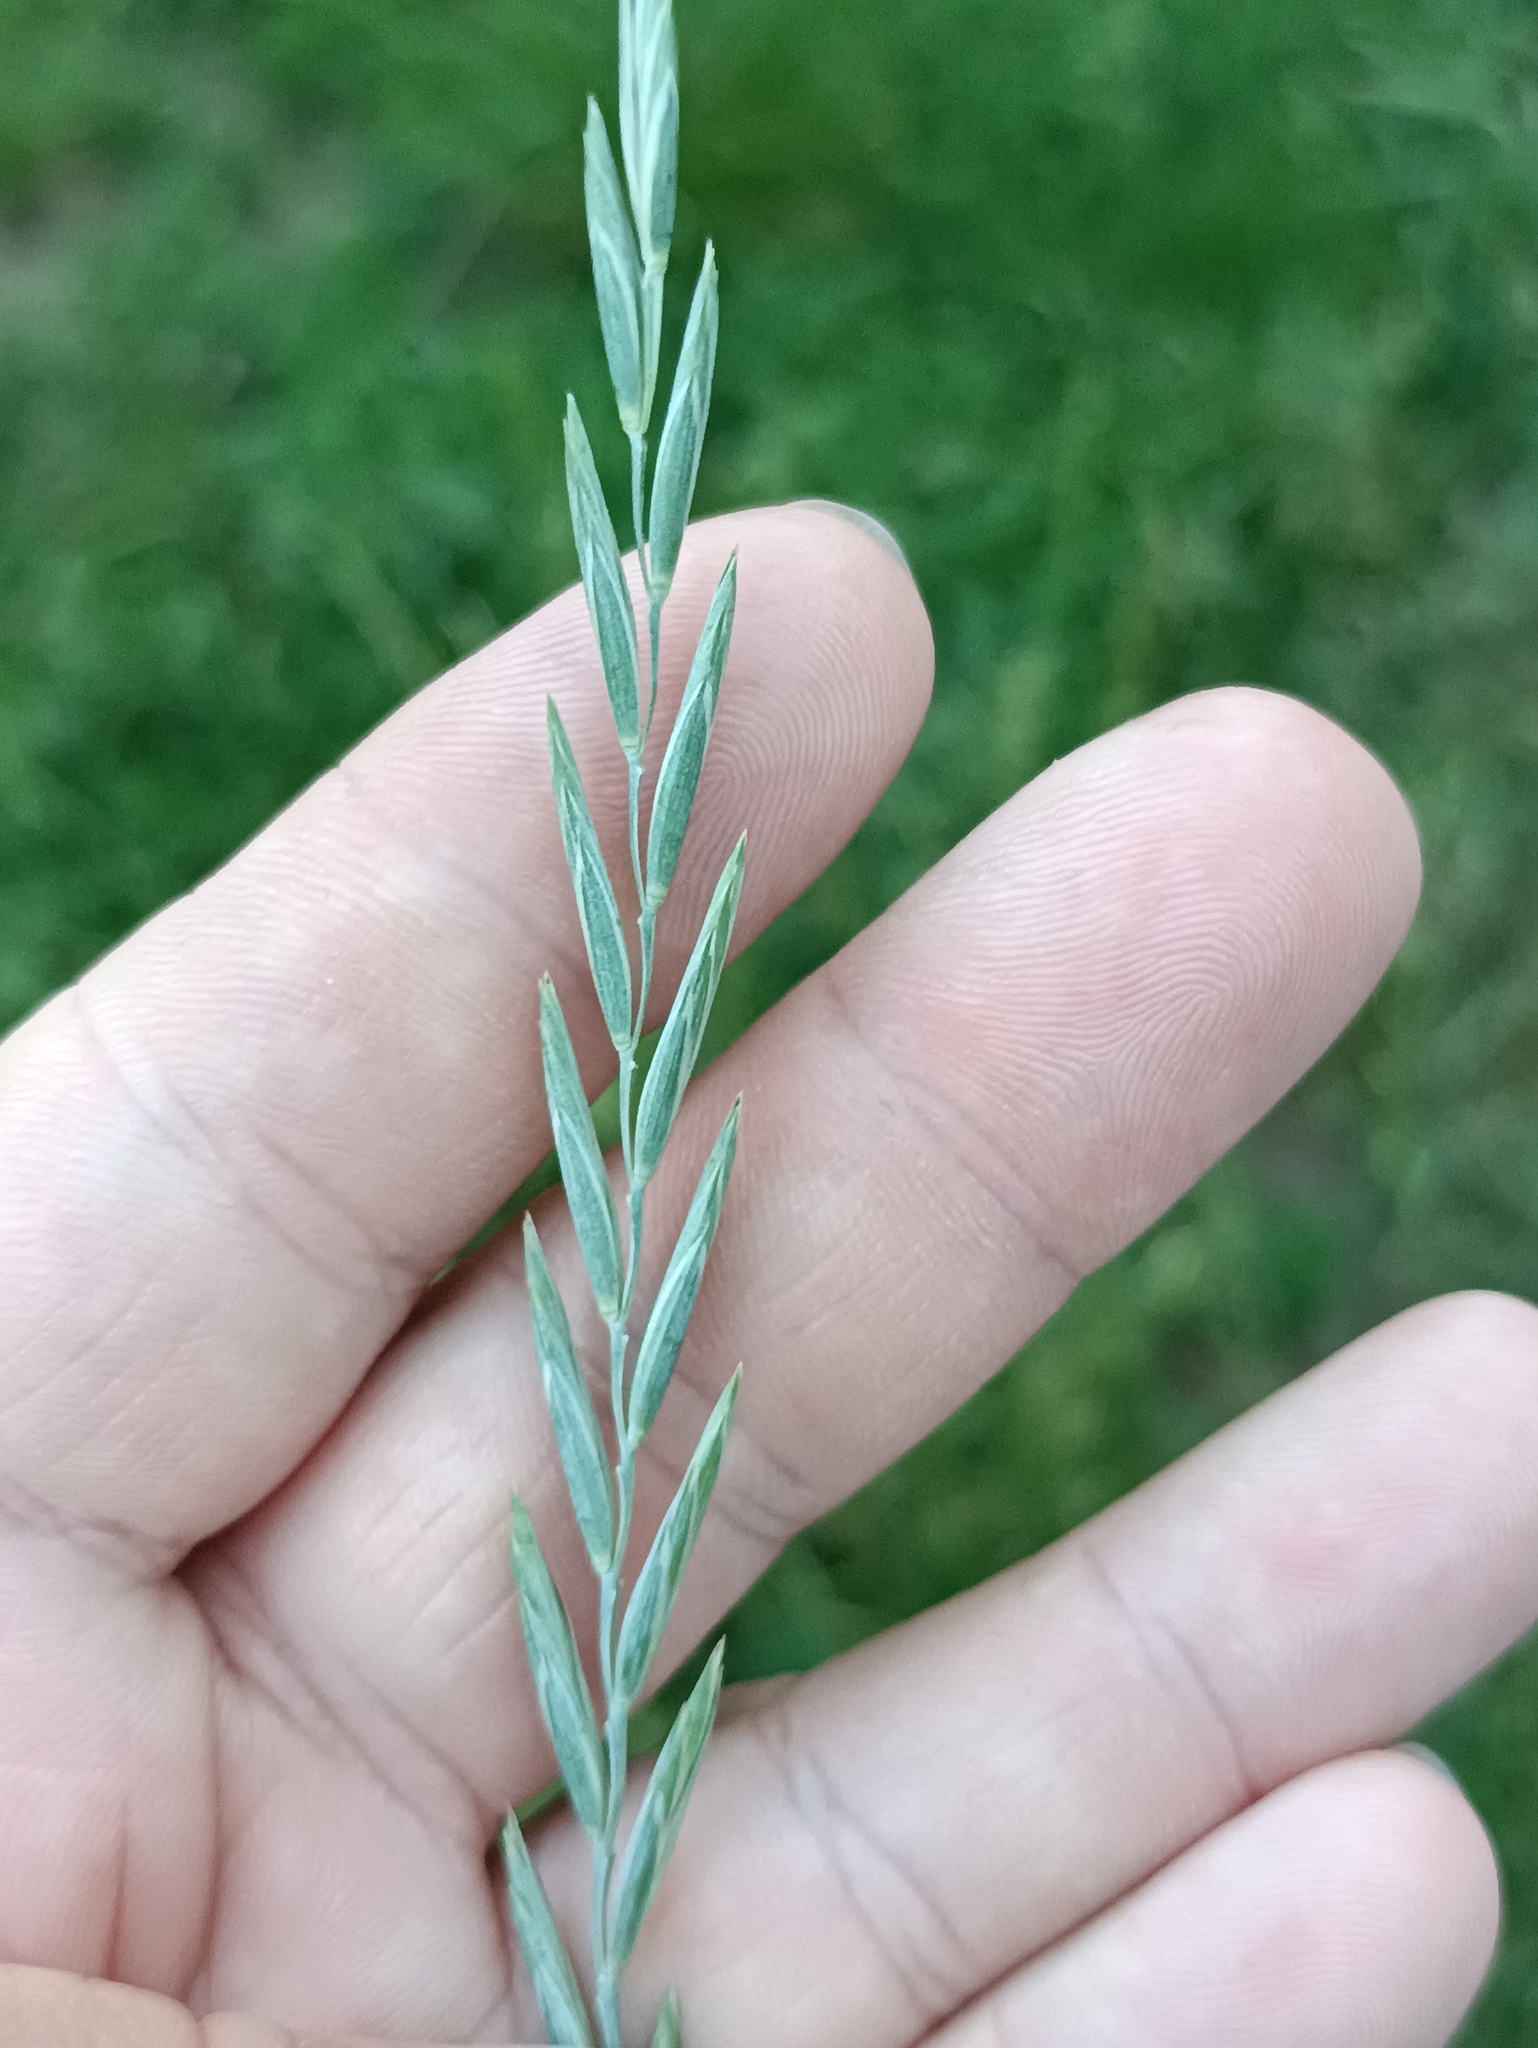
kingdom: Plantae
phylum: Tracheophyta
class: Liliopsida
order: Poales
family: Poaceae
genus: Elymus
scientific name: Elymus repens
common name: Quackgrass
